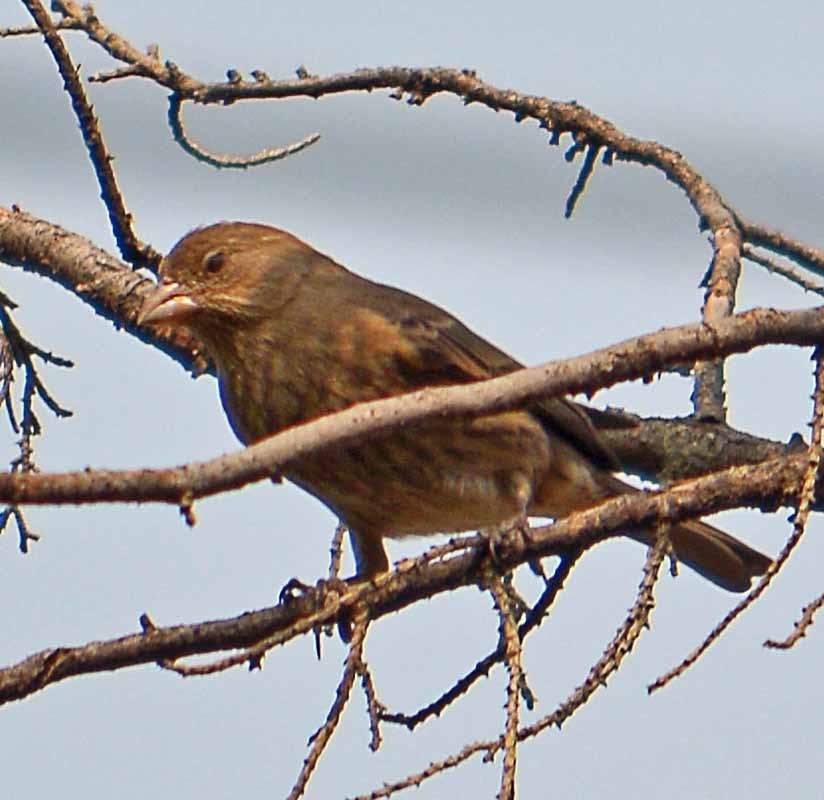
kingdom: Animalia
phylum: Chordata
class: Aves
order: Passeriformes
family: Fringillidae
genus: Haemorhous
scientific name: Haemorhous mexicanus
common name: House finch
